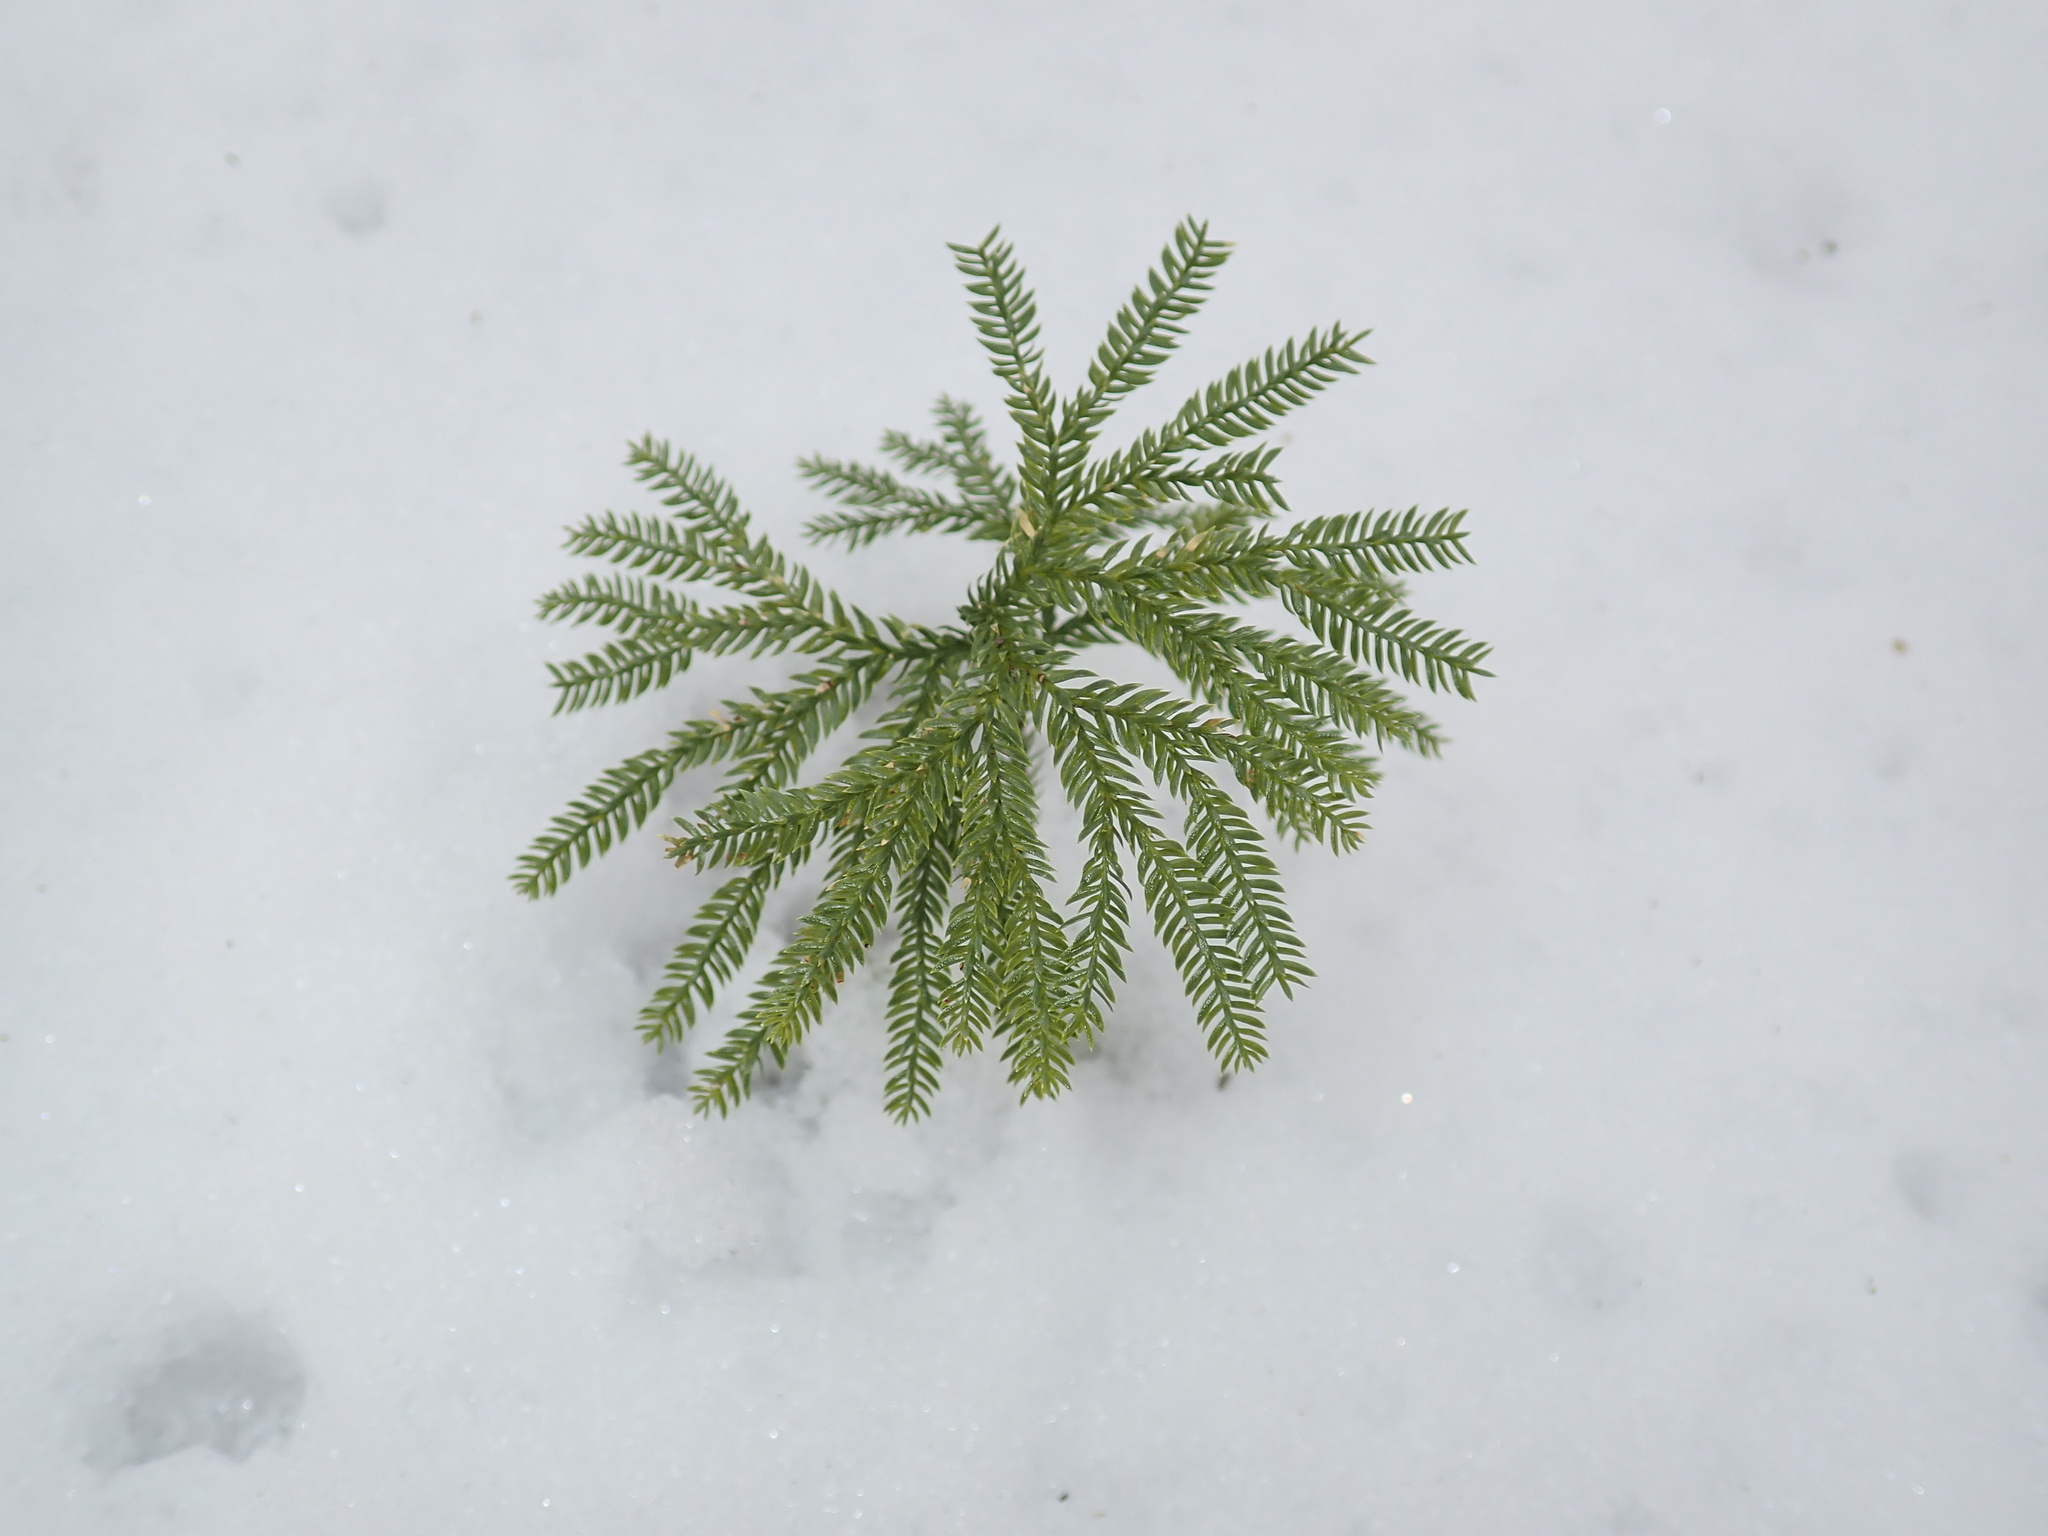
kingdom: Plantae
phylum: Tracheophyta
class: Lycopodiopsida
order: Lycopodiales
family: Lycopodiaceae
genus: Dendrolycopodium
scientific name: Dendrolycopodium obscurum
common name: Common ground-pine
